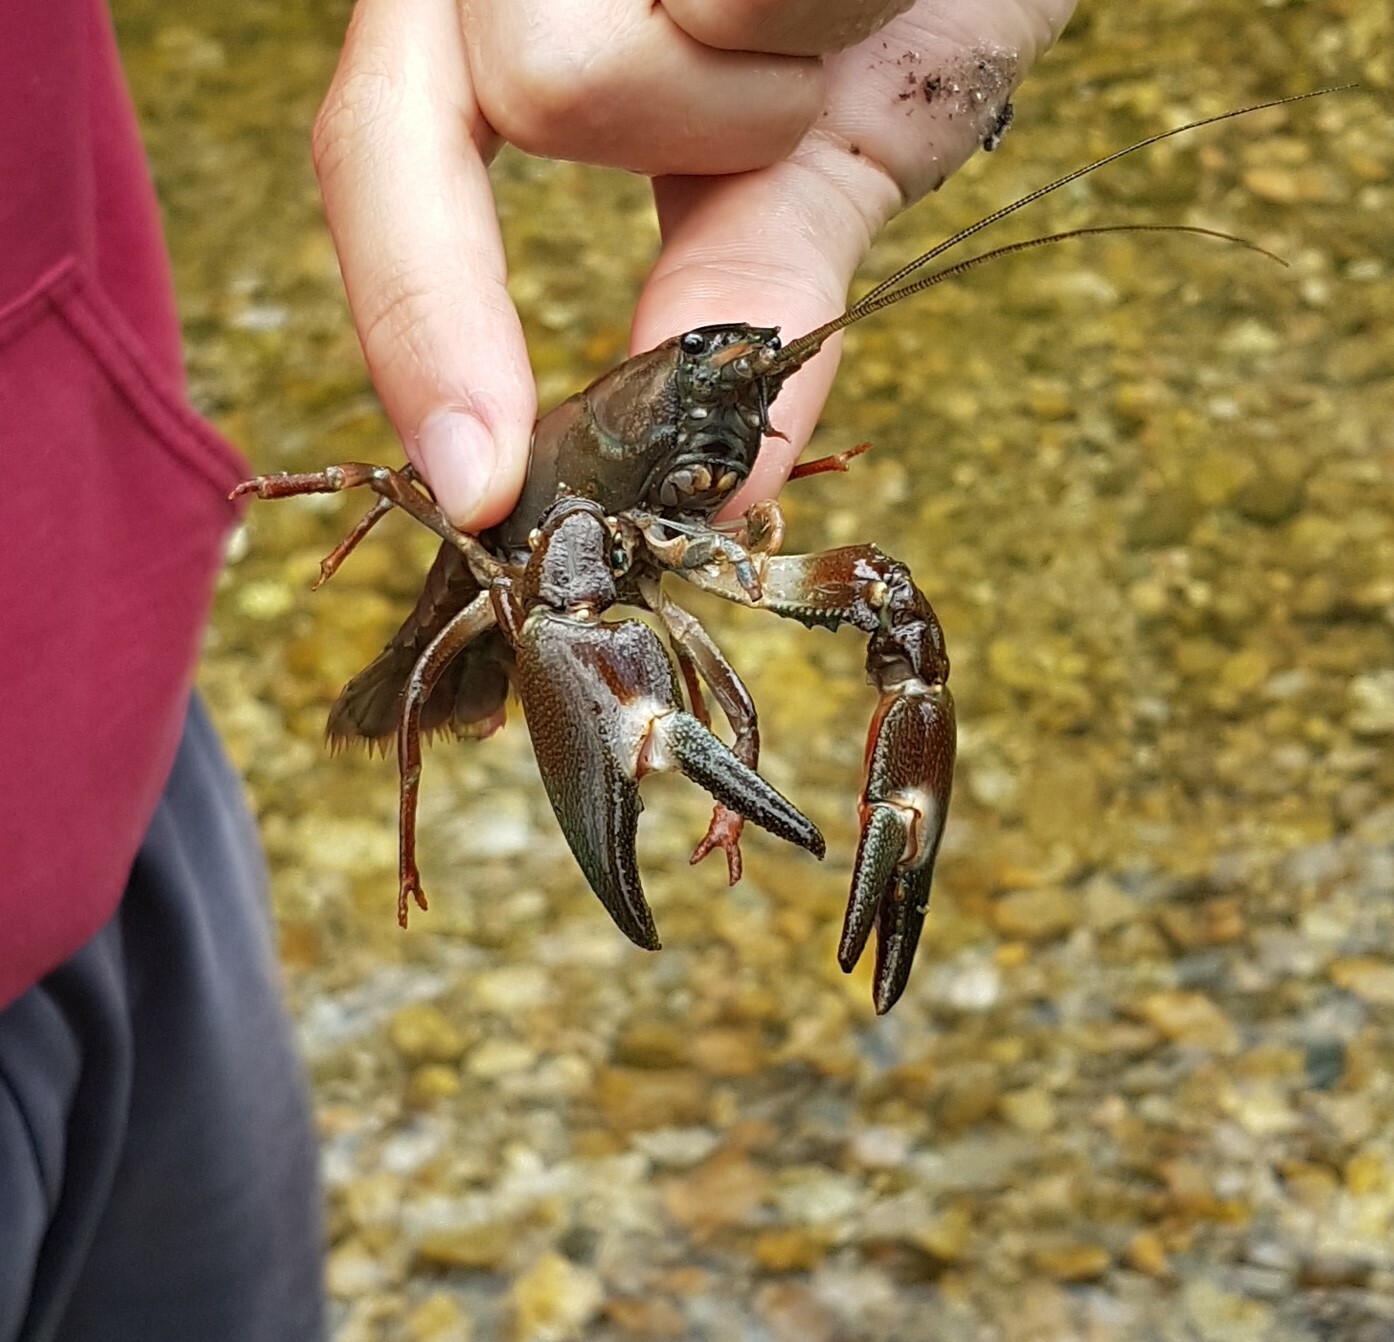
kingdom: Animalia
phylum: Arthropoda
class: Malacostraca
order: Decapoda
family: Astacidae
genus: Pacifastacus
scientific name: Pacifastacus leniusculus
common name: Signal crayfish
